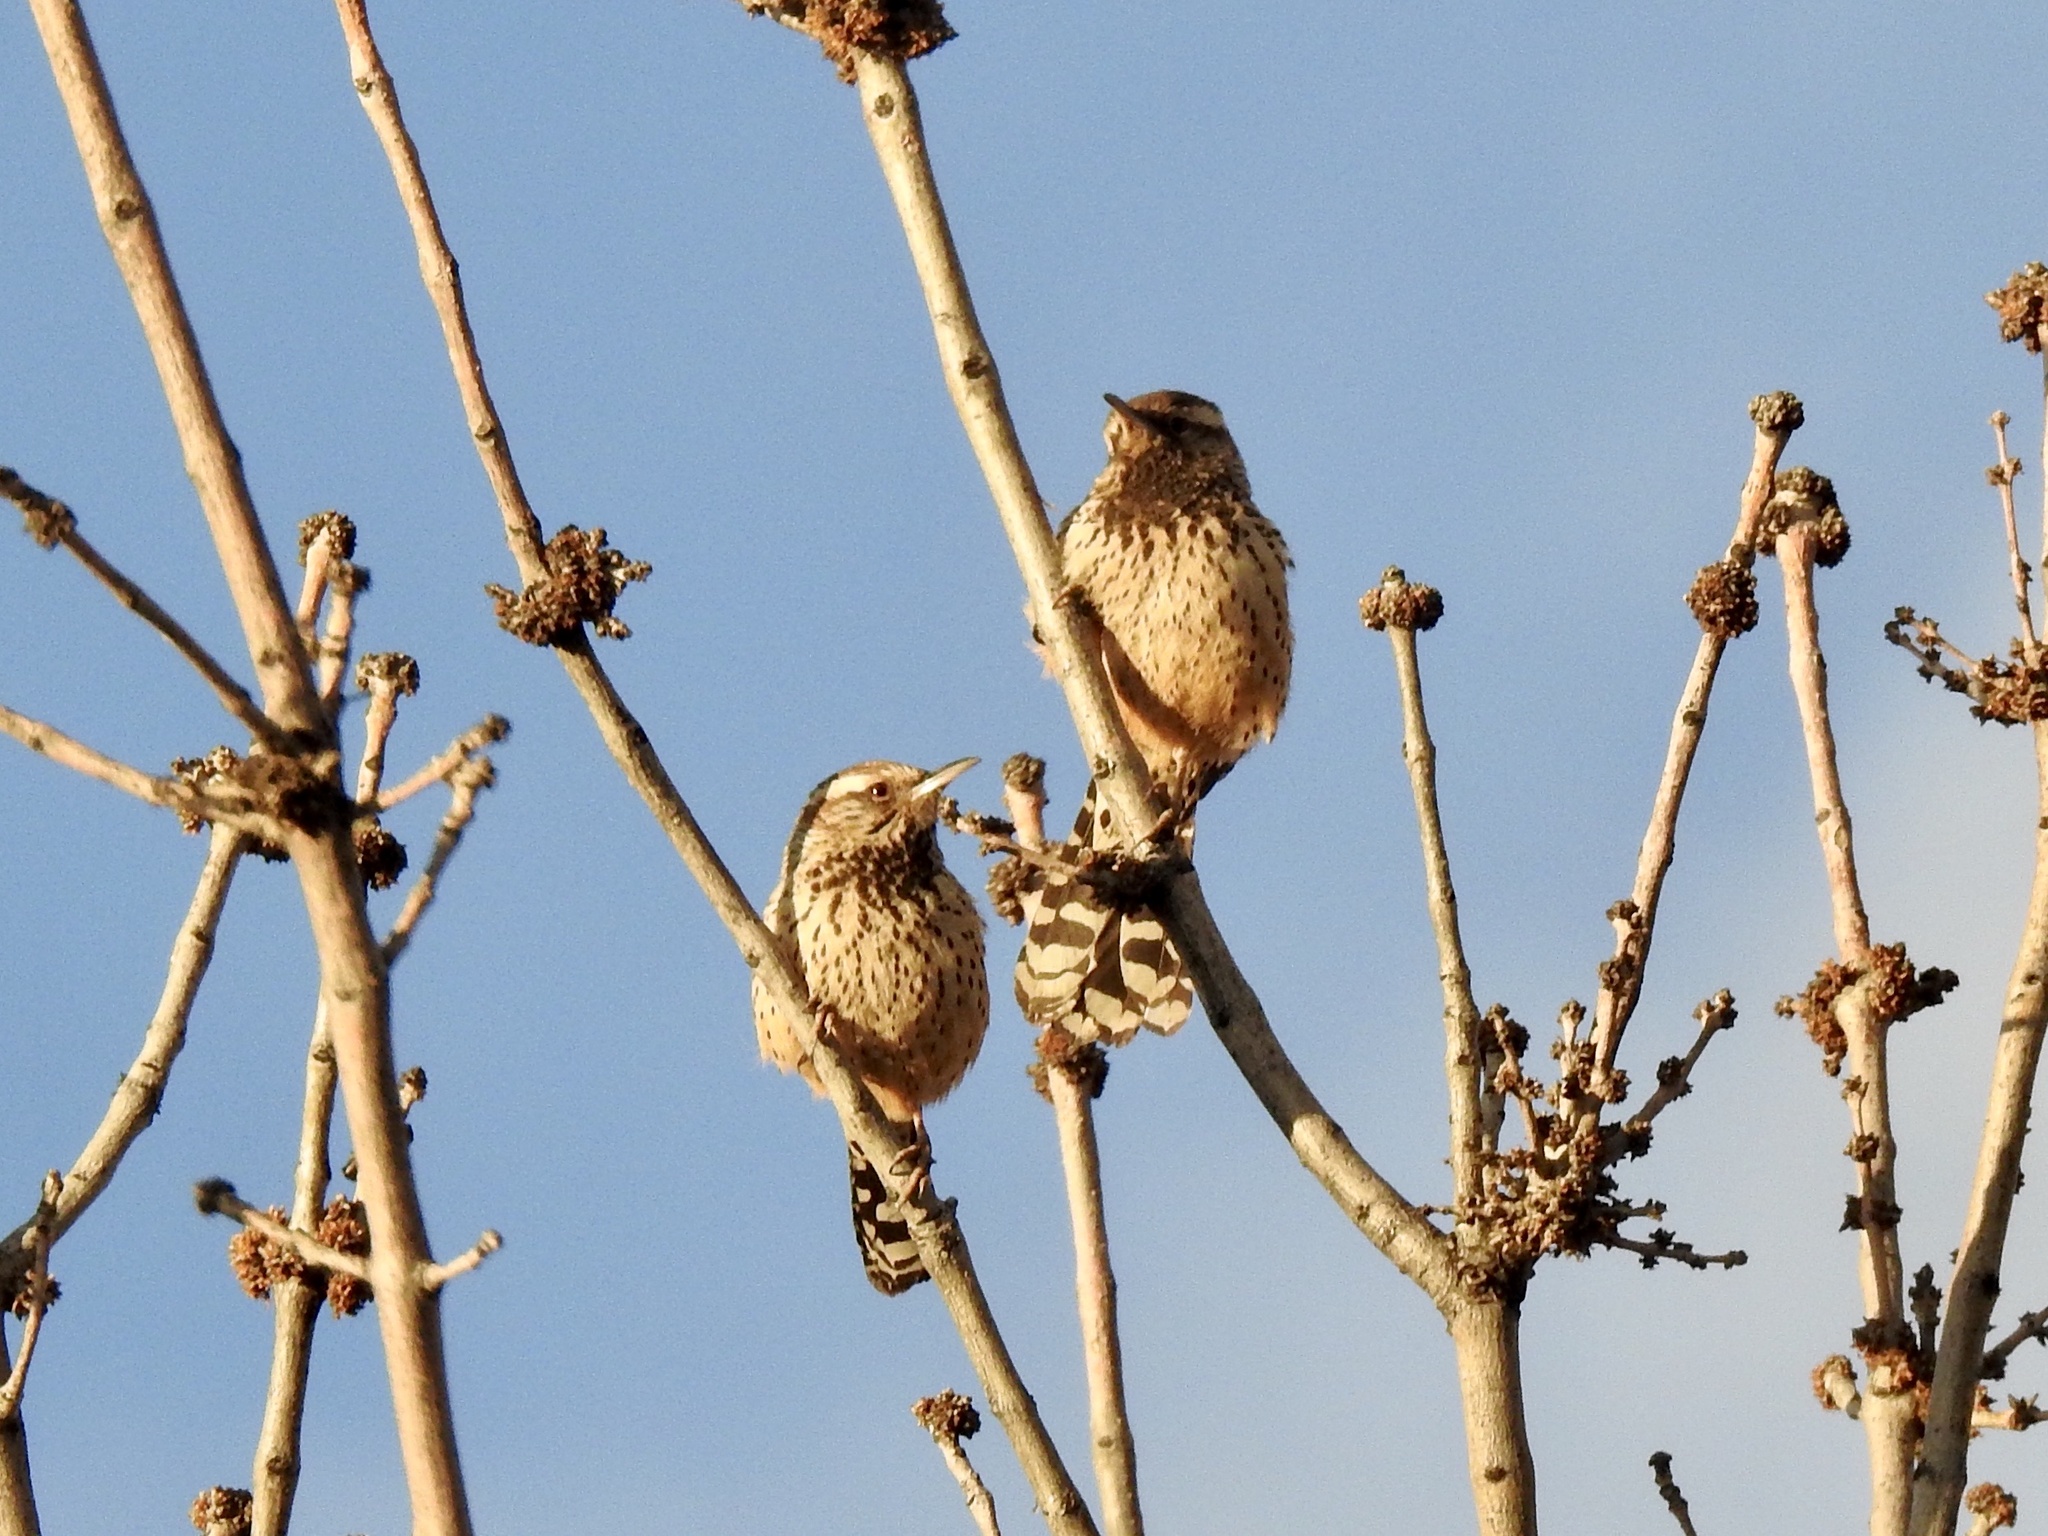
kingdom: Animalia
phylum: Chordata
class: Aves
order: Passeriformes
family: Troglodytidae
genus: Campylorhynchus
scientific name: Campylorhynchus brunneicapillus
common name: Cactus wren
